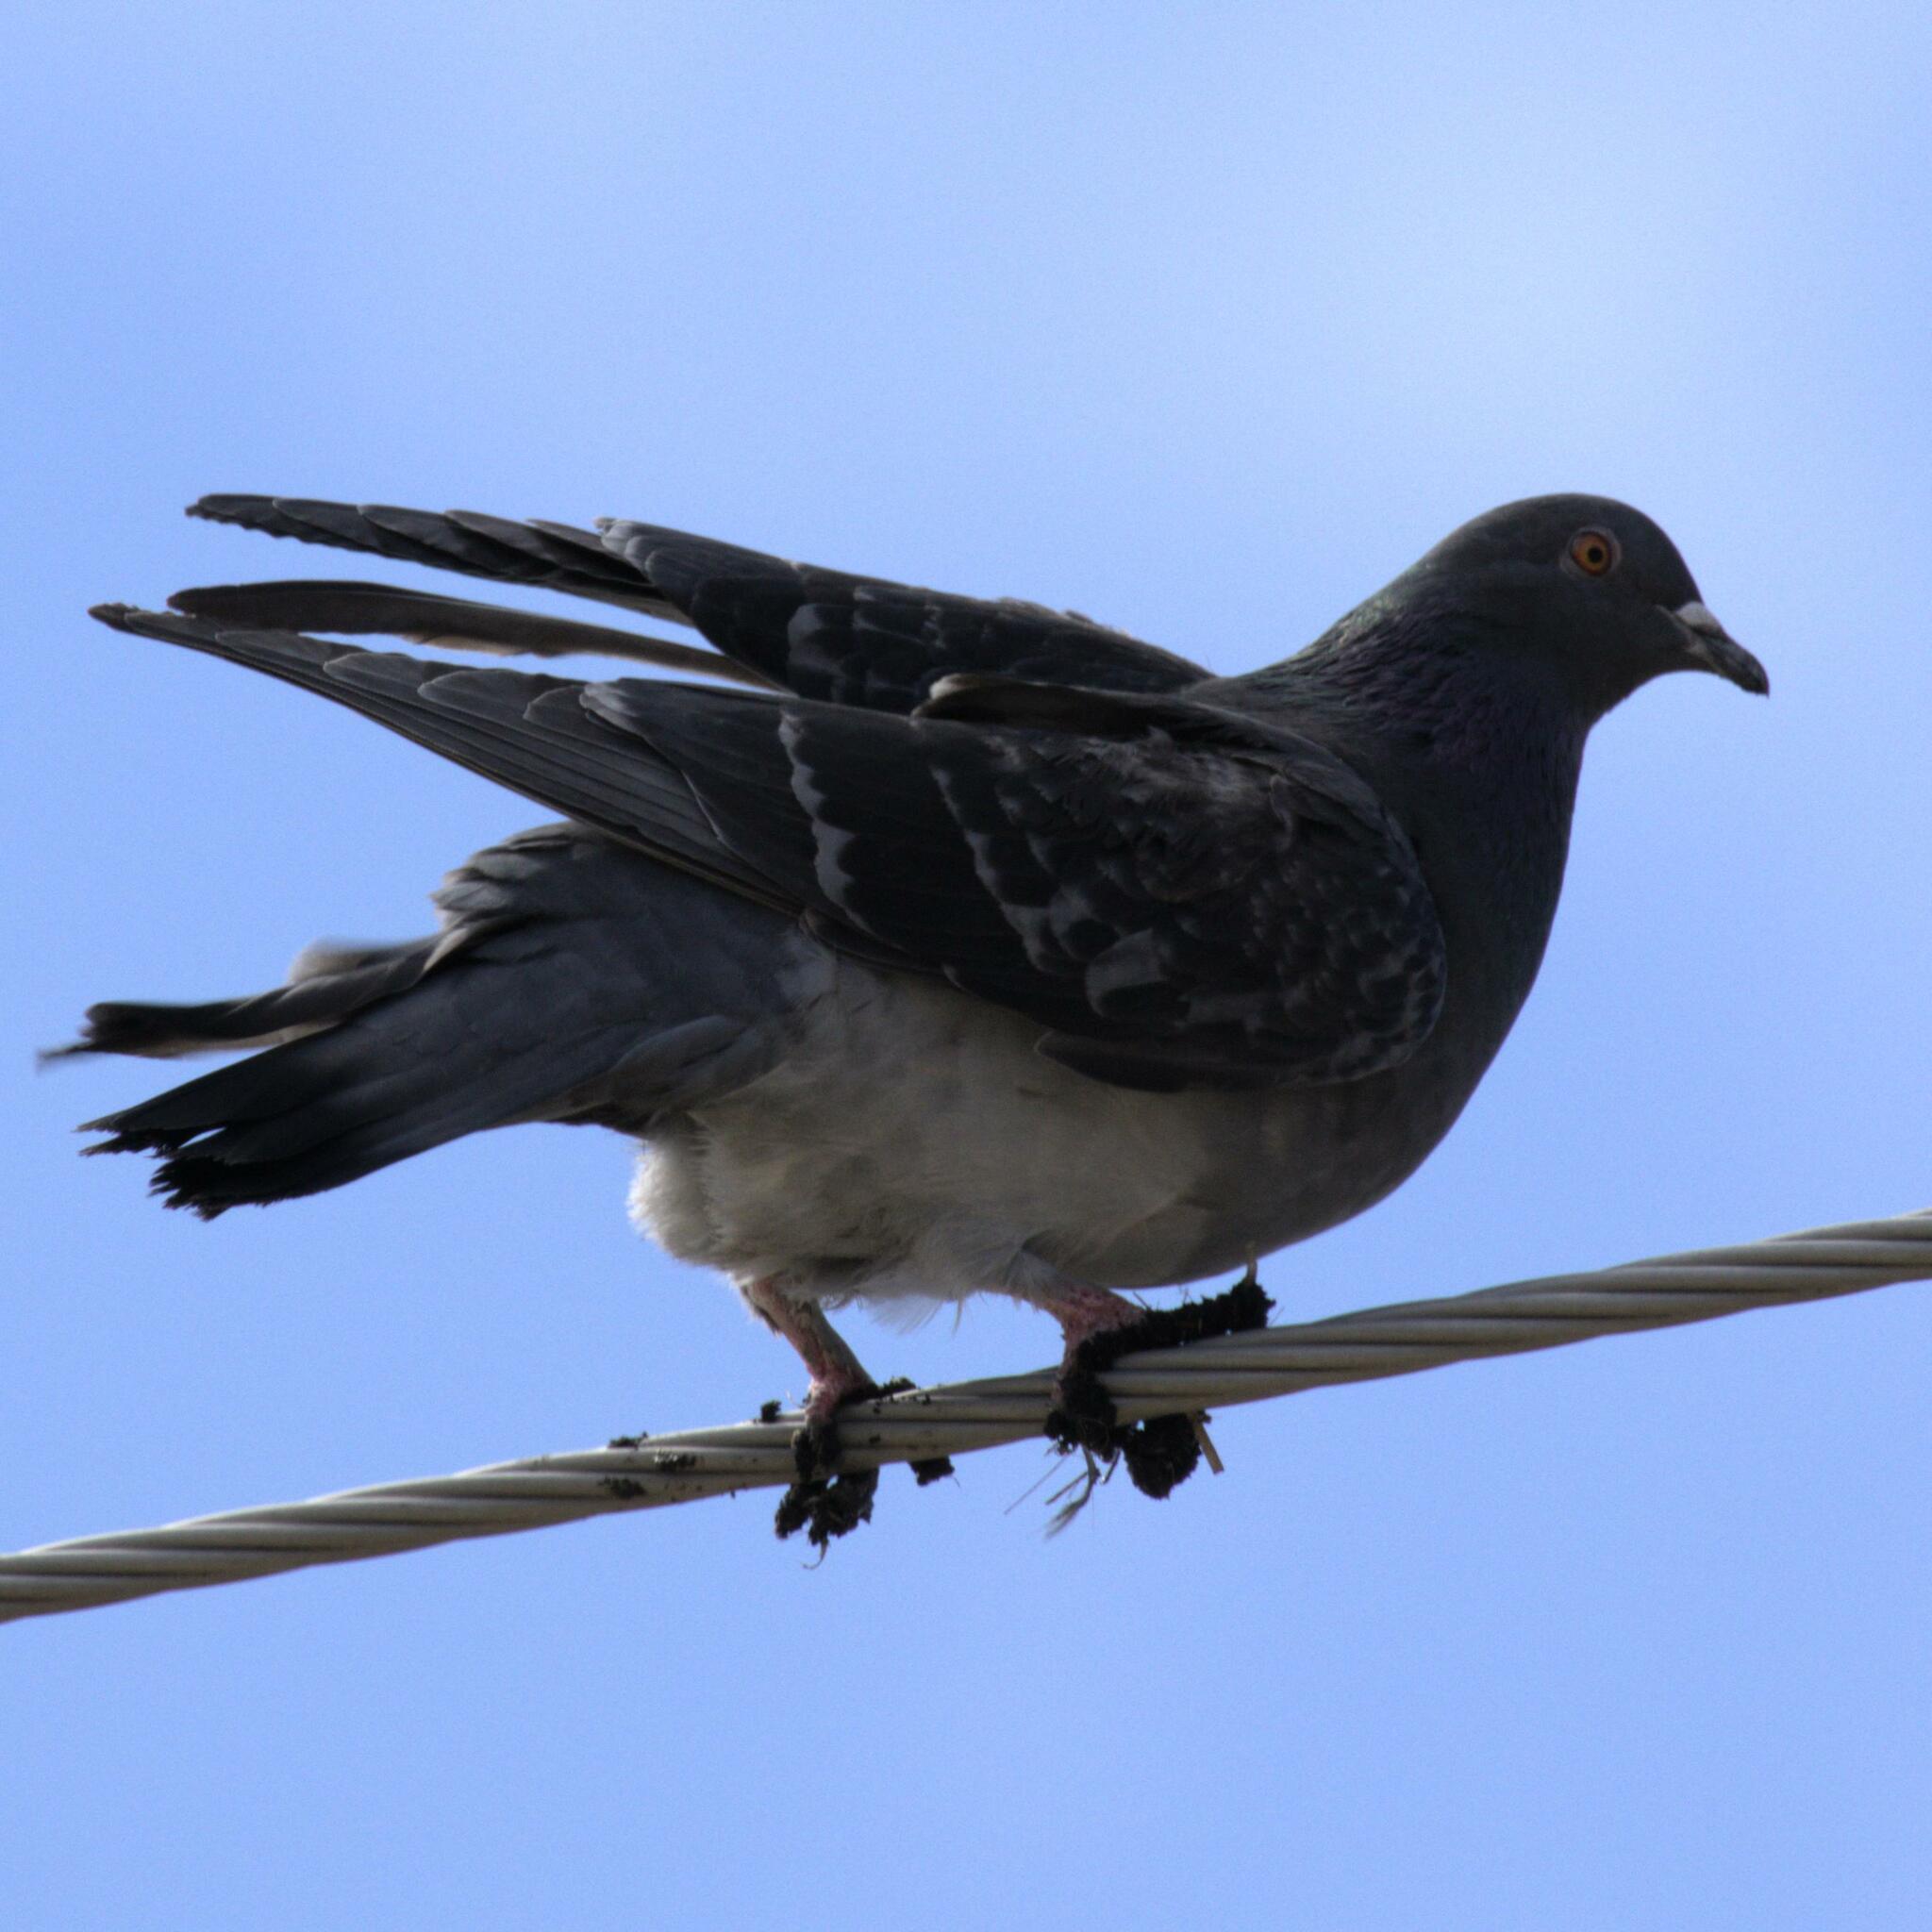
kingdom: Animalia
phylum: Chordata
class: Aves
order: Columbiformes
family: Columbidae
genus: Columba
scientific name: Columba livia
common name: Rock pigeon
